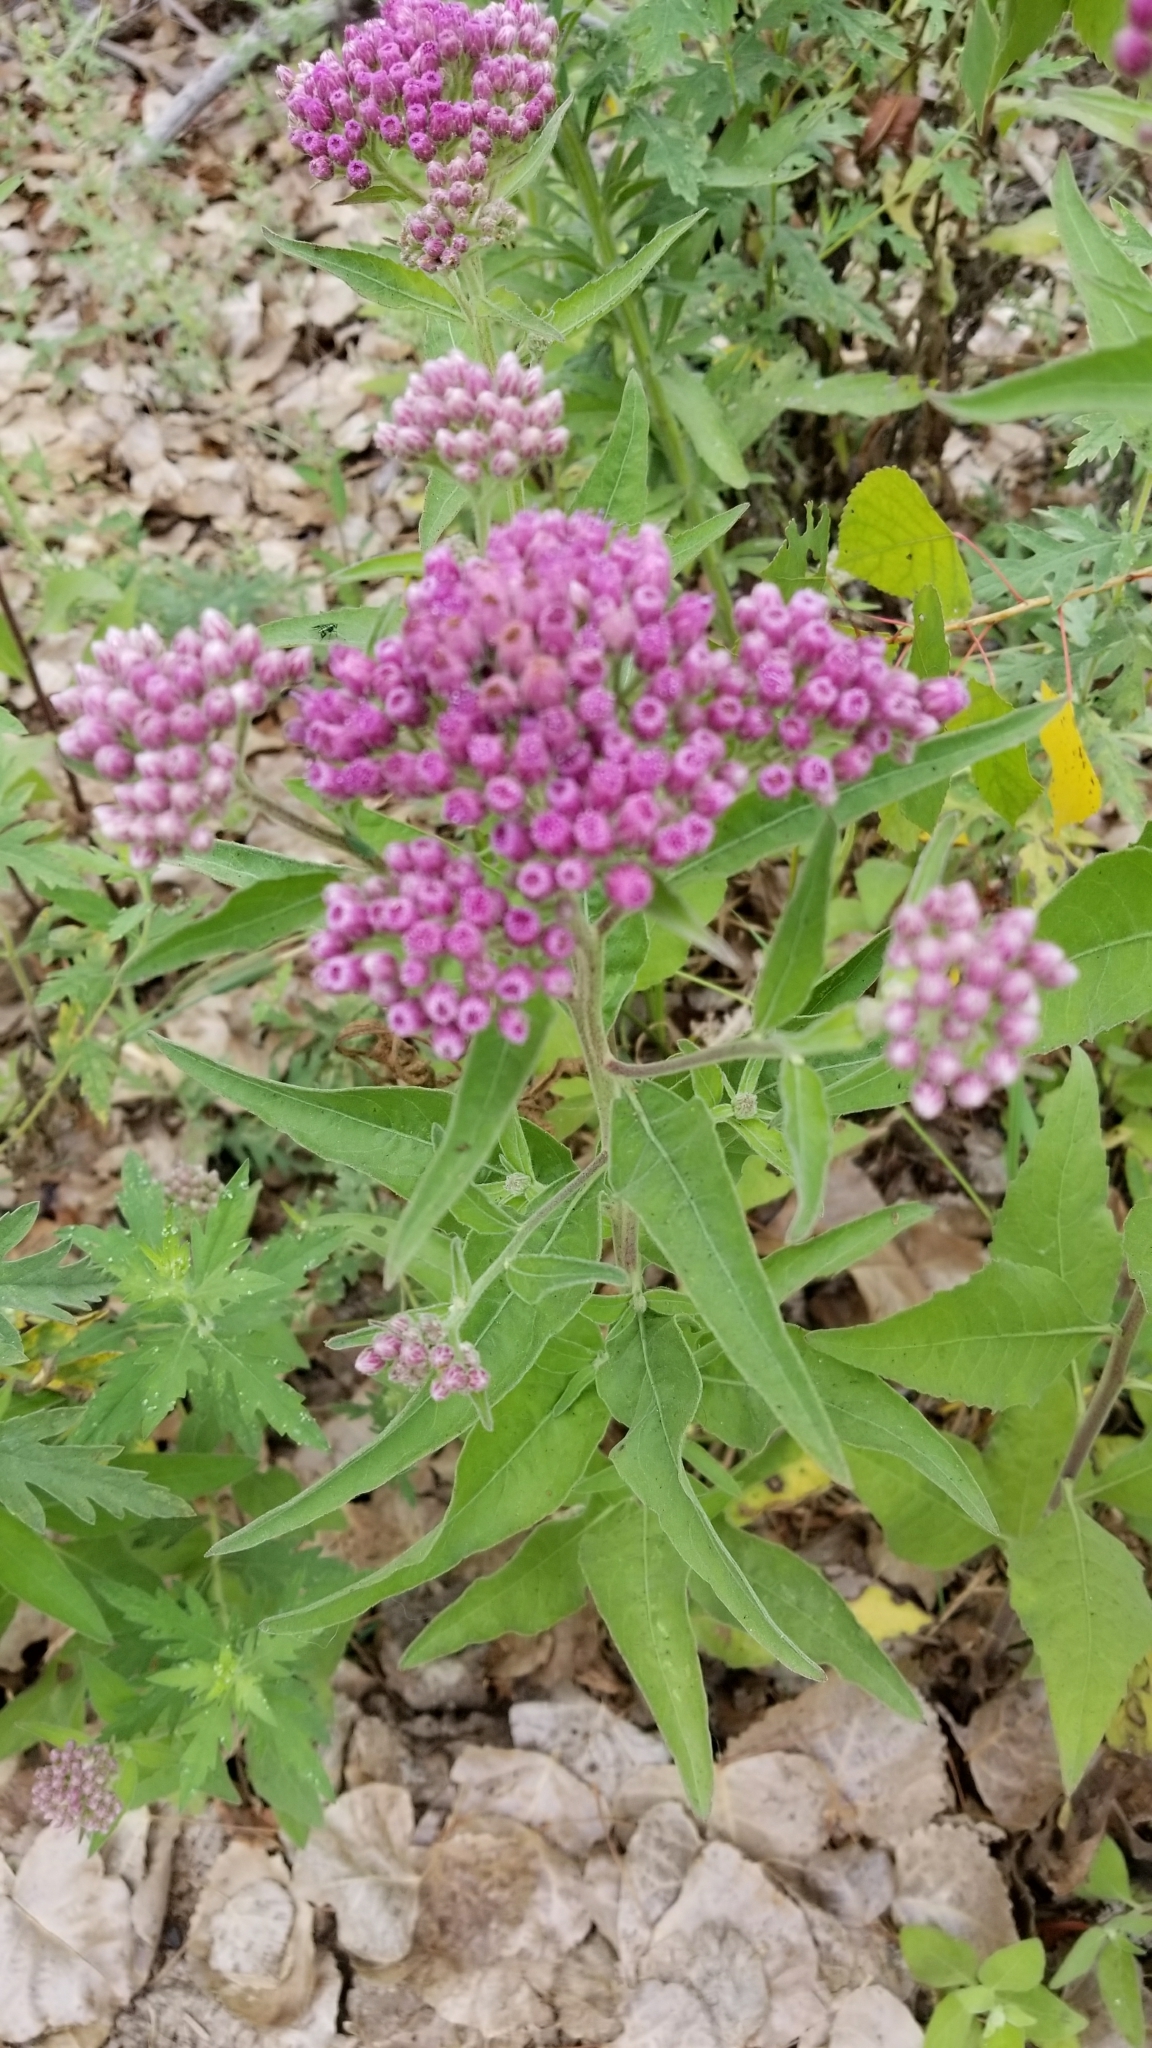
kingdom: Plantae
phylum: Tracheophyta
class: Magnoliopsida
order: Asterales
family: Asteraceae
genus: Pluchea
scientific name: Pluchea odorata
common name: Saltmarsh fleabane
